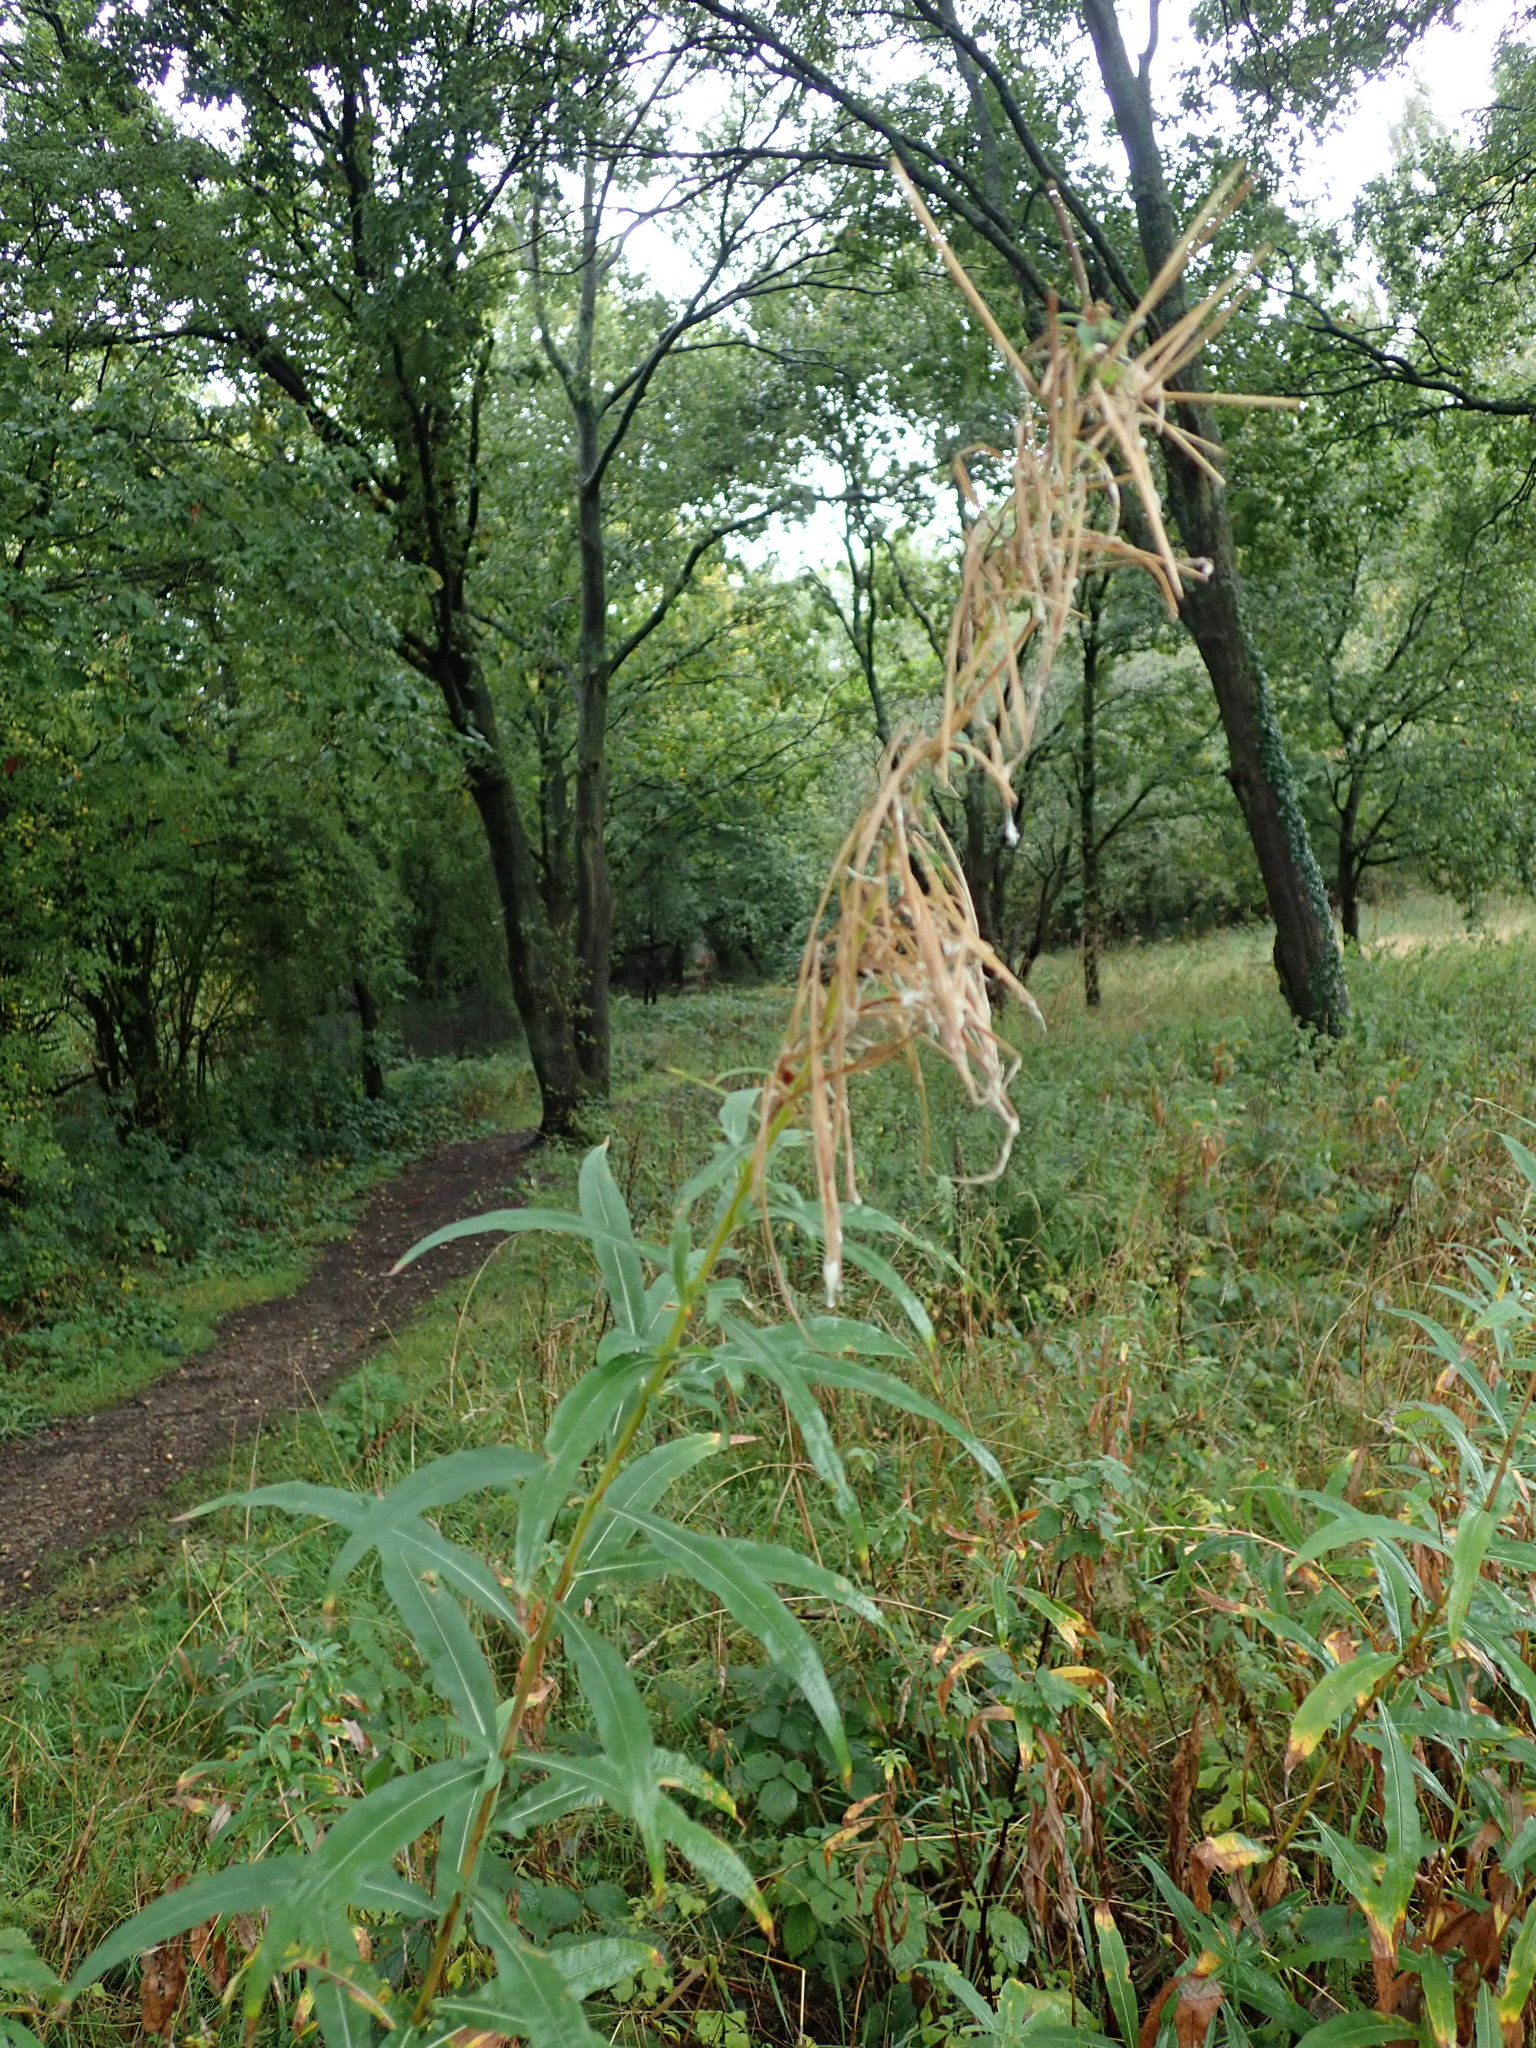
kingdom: Plantae
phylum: Tracheophyta
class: Magnoliopsida
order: Myrtales
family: Onagraceae
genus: Chamaenerion
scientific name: Chamaenerion angustifolium
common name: Fireweed
